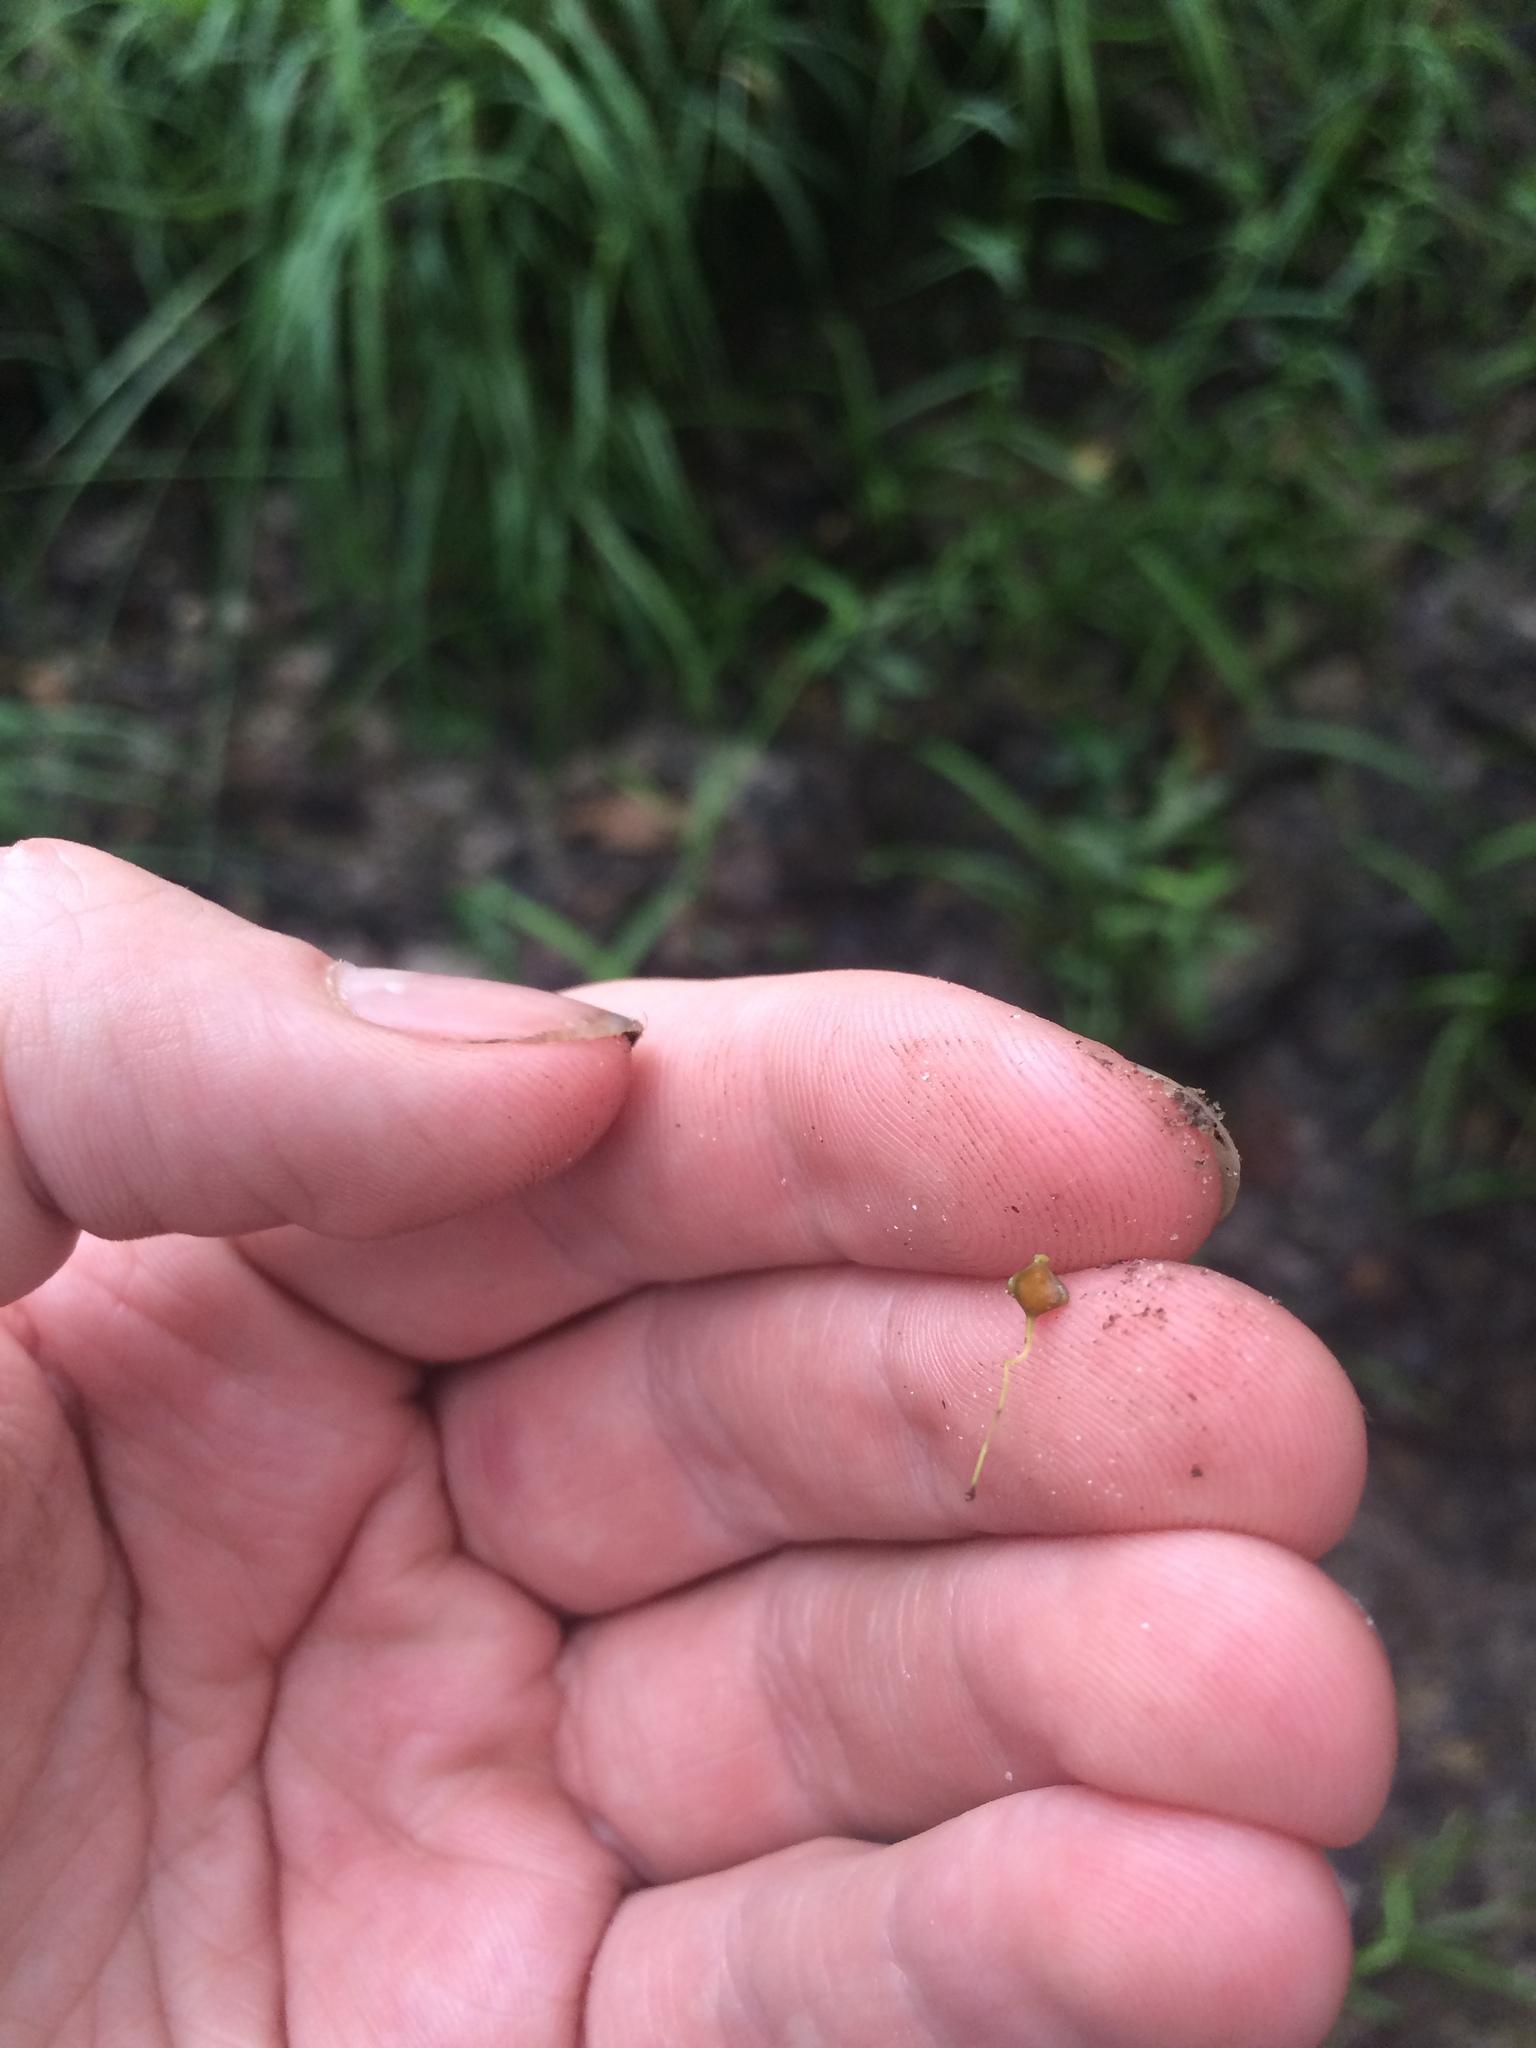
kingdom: Plantae
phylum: Tracheophyta
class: Liliopsida
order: Poales
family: Cyperaceae
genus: Carex
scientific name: Carex gigantea
